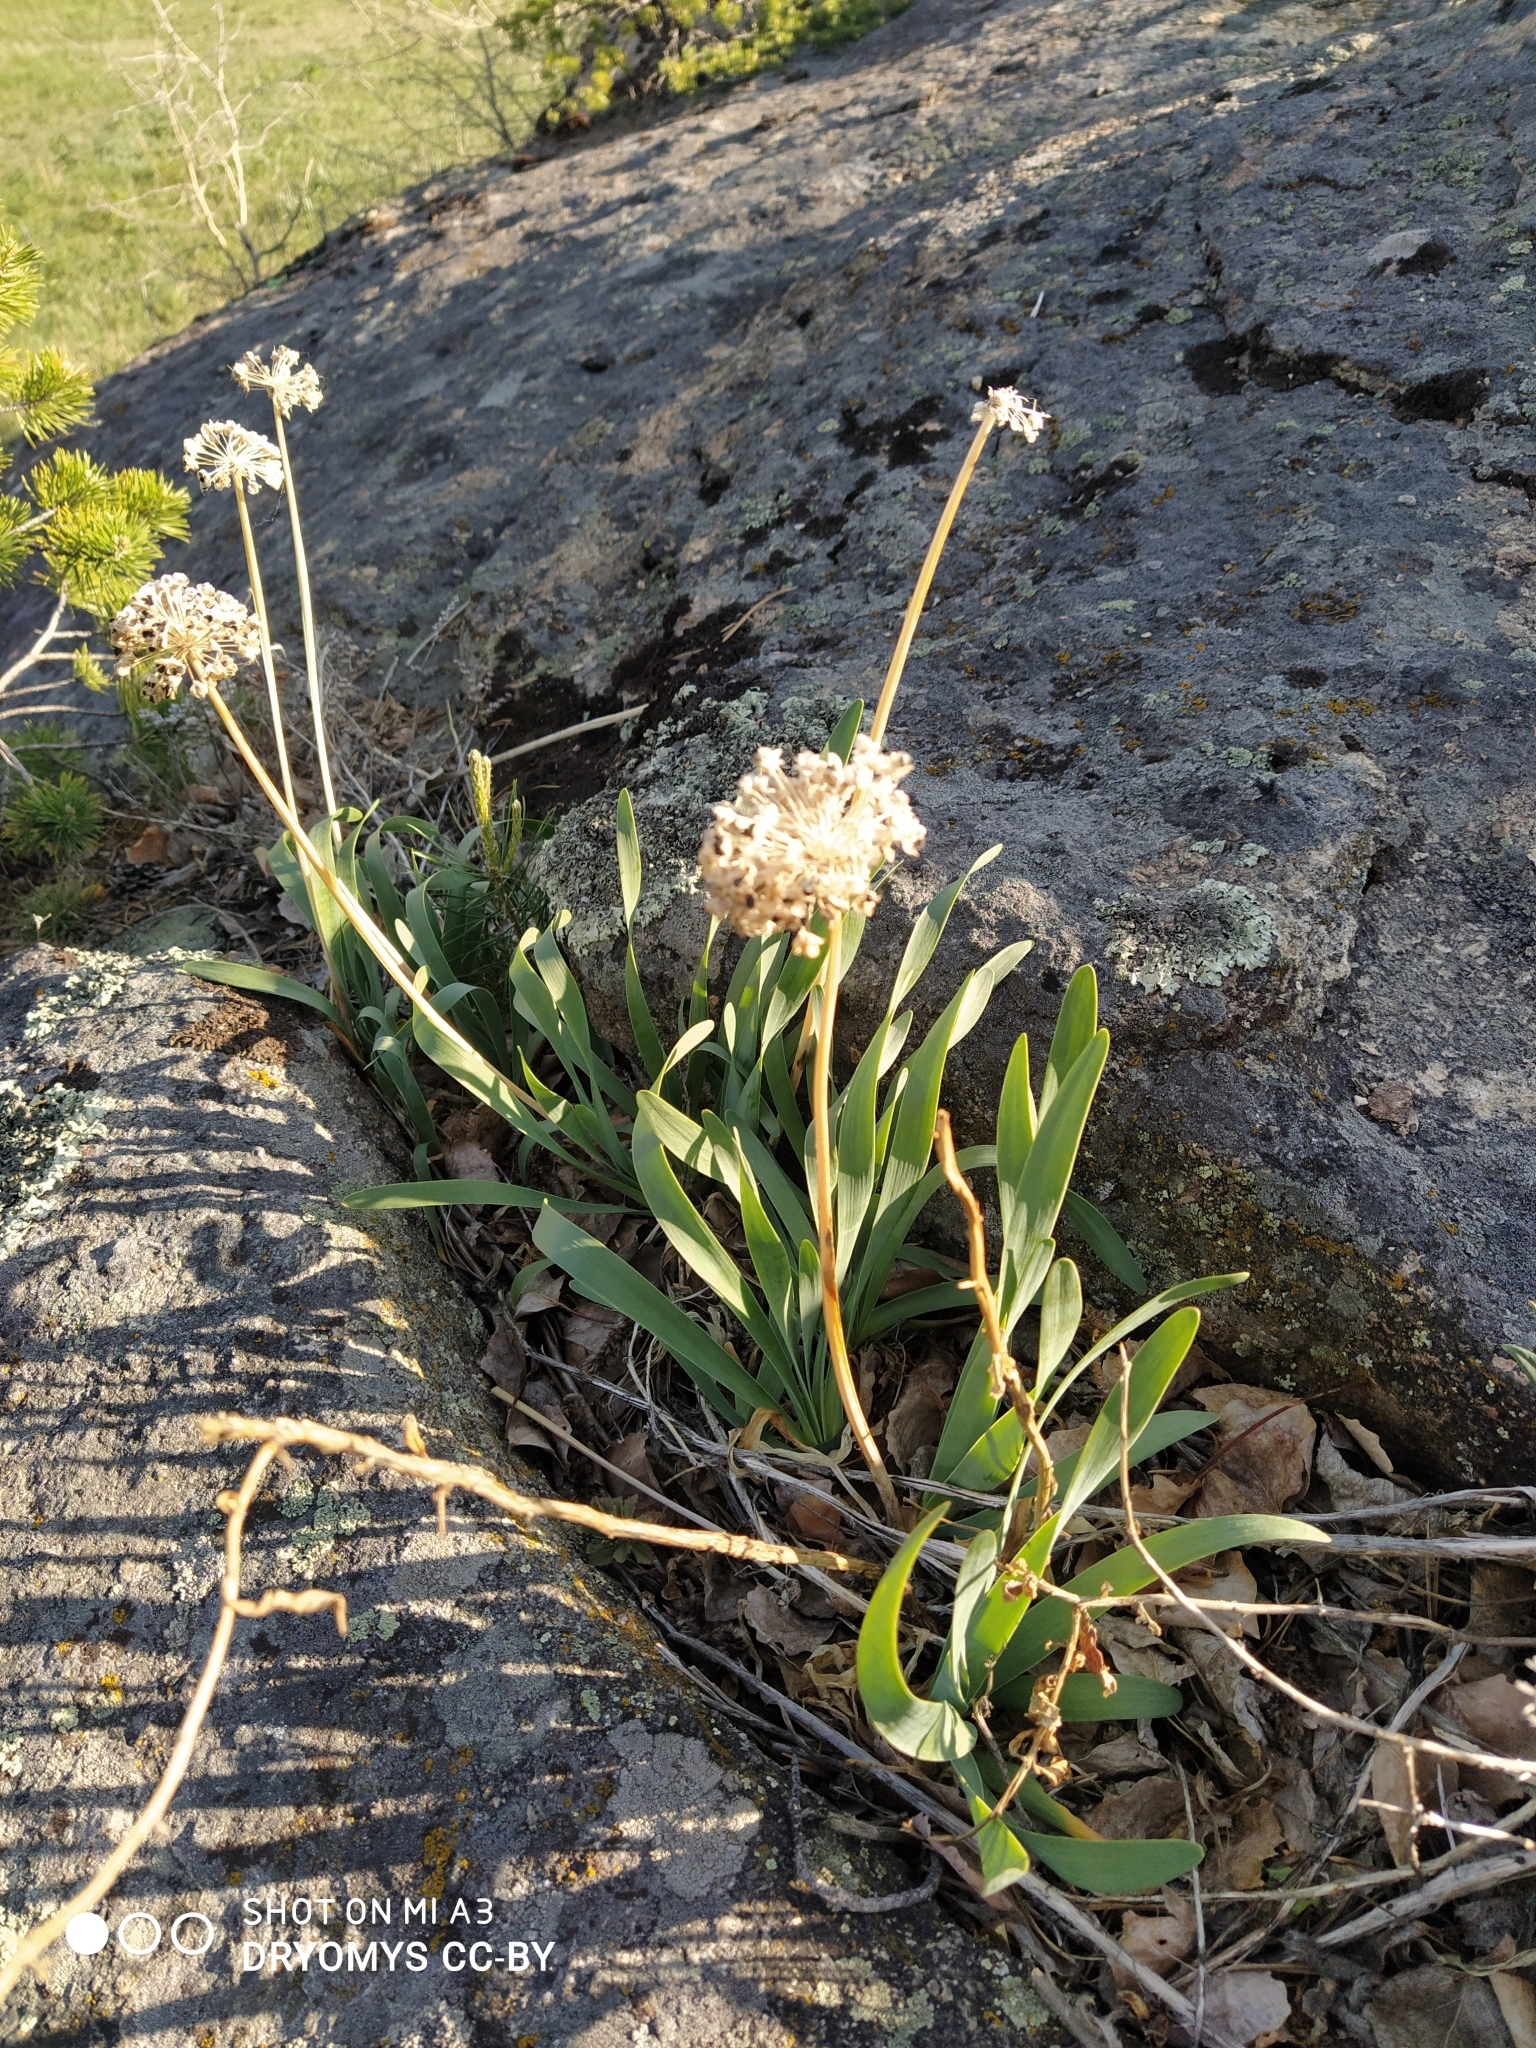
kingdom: Plantae
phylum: Tracheophyta
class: Liliopsida
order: Asparagales
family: Amaryllidaceae
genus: Allium
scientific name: Allium nutans
